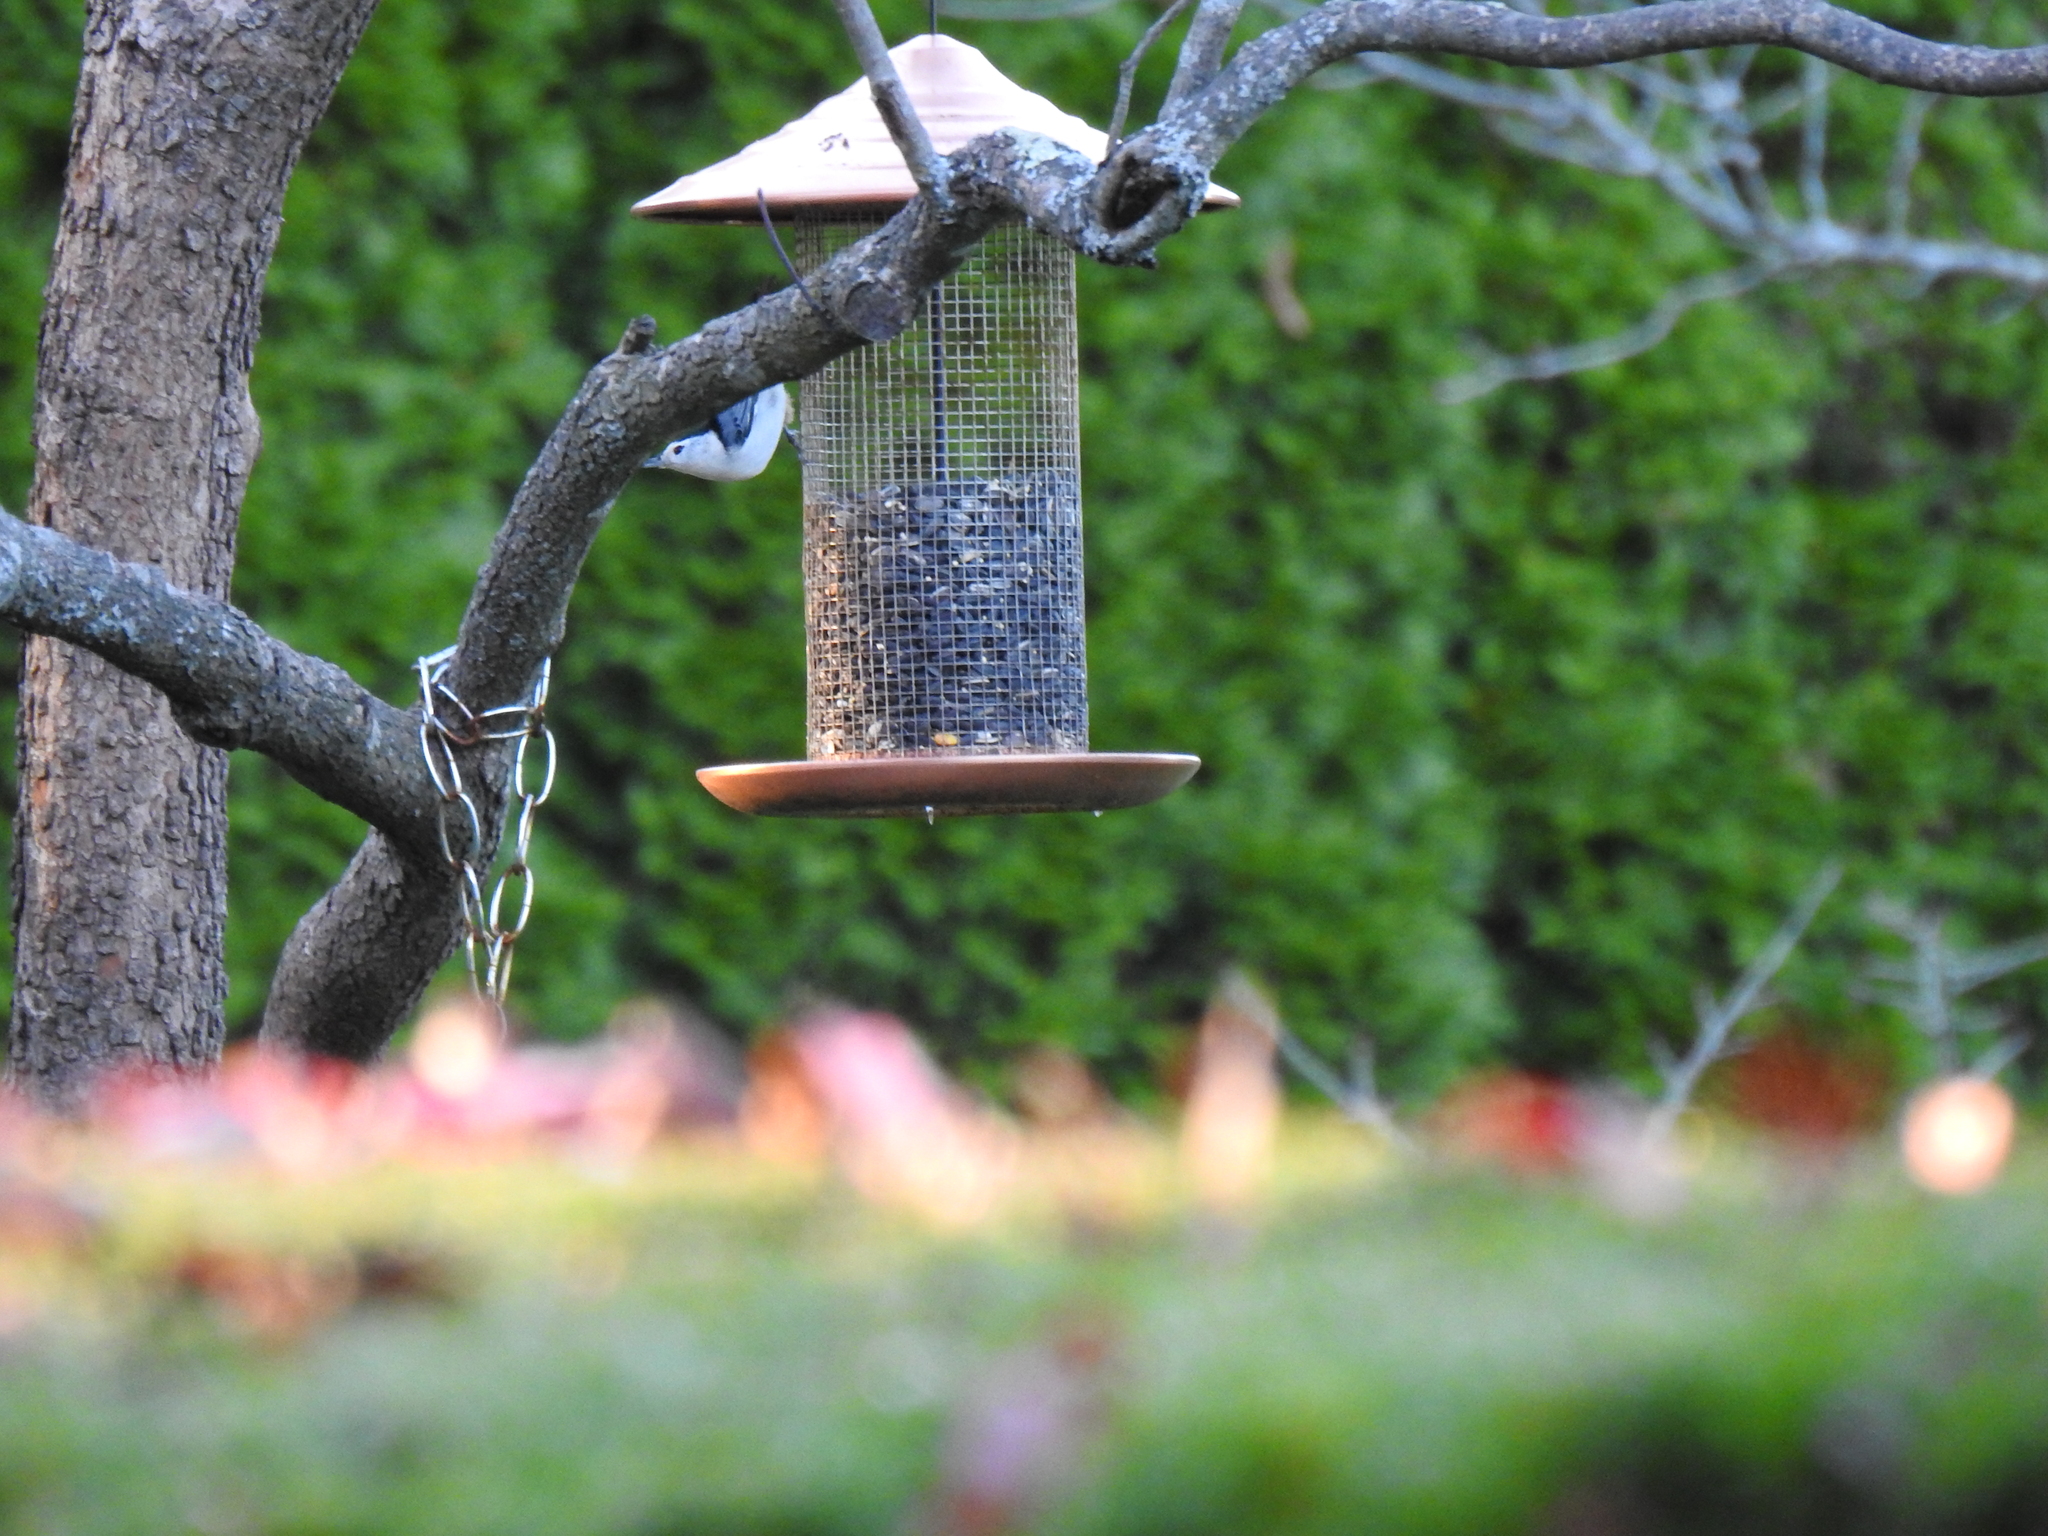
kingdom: Animalia
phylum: Chordata
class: Aves
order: Passeriformes
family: Sittidae
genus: Sitta
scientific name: Sitta carolinensis
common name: White-breasted nuthatch
